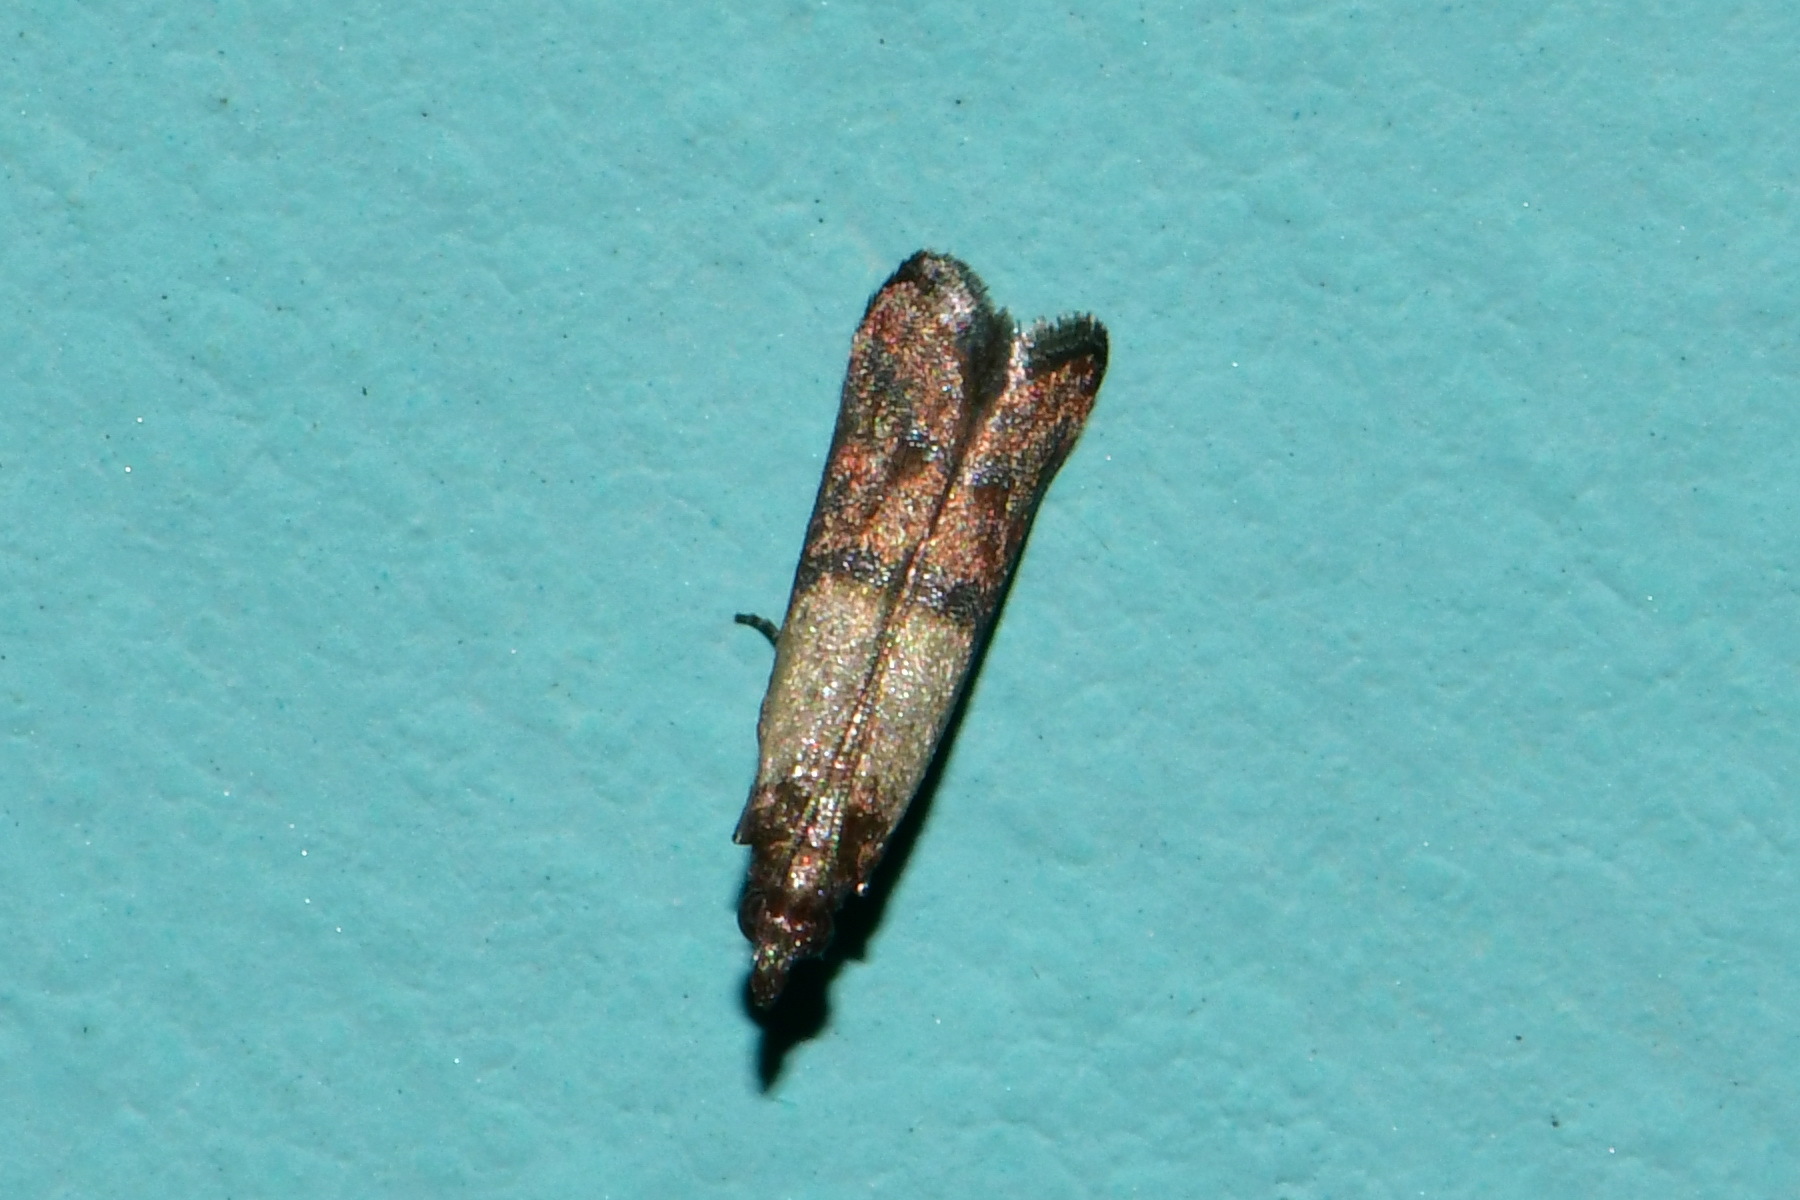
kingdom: Animalia
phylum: Arthropoda
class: Insecta
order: Lepidoptera
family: Pyralidae
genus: Plodia
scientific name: Plodia interpunctella
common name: Indian meal moth
